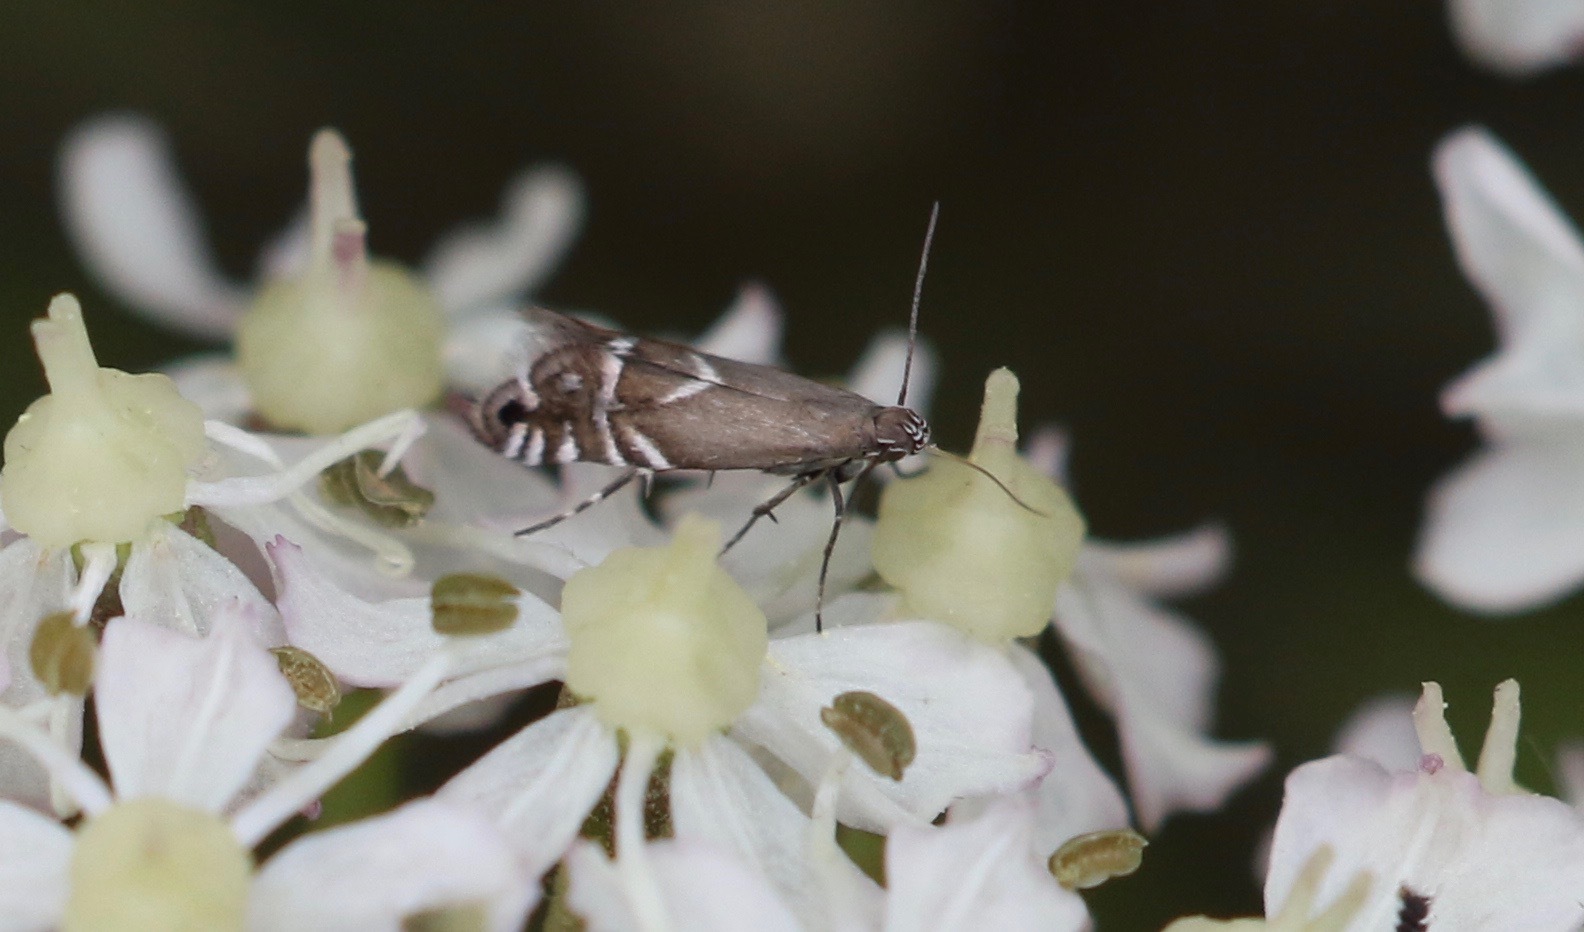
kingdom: Animalia
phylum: Arthropoda
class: Insecta
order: Lepidoptera
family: Glyphipterigidae
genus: Glyphipterix
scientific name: Glyphipterix simpliciella
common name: Cocksfoot moth
